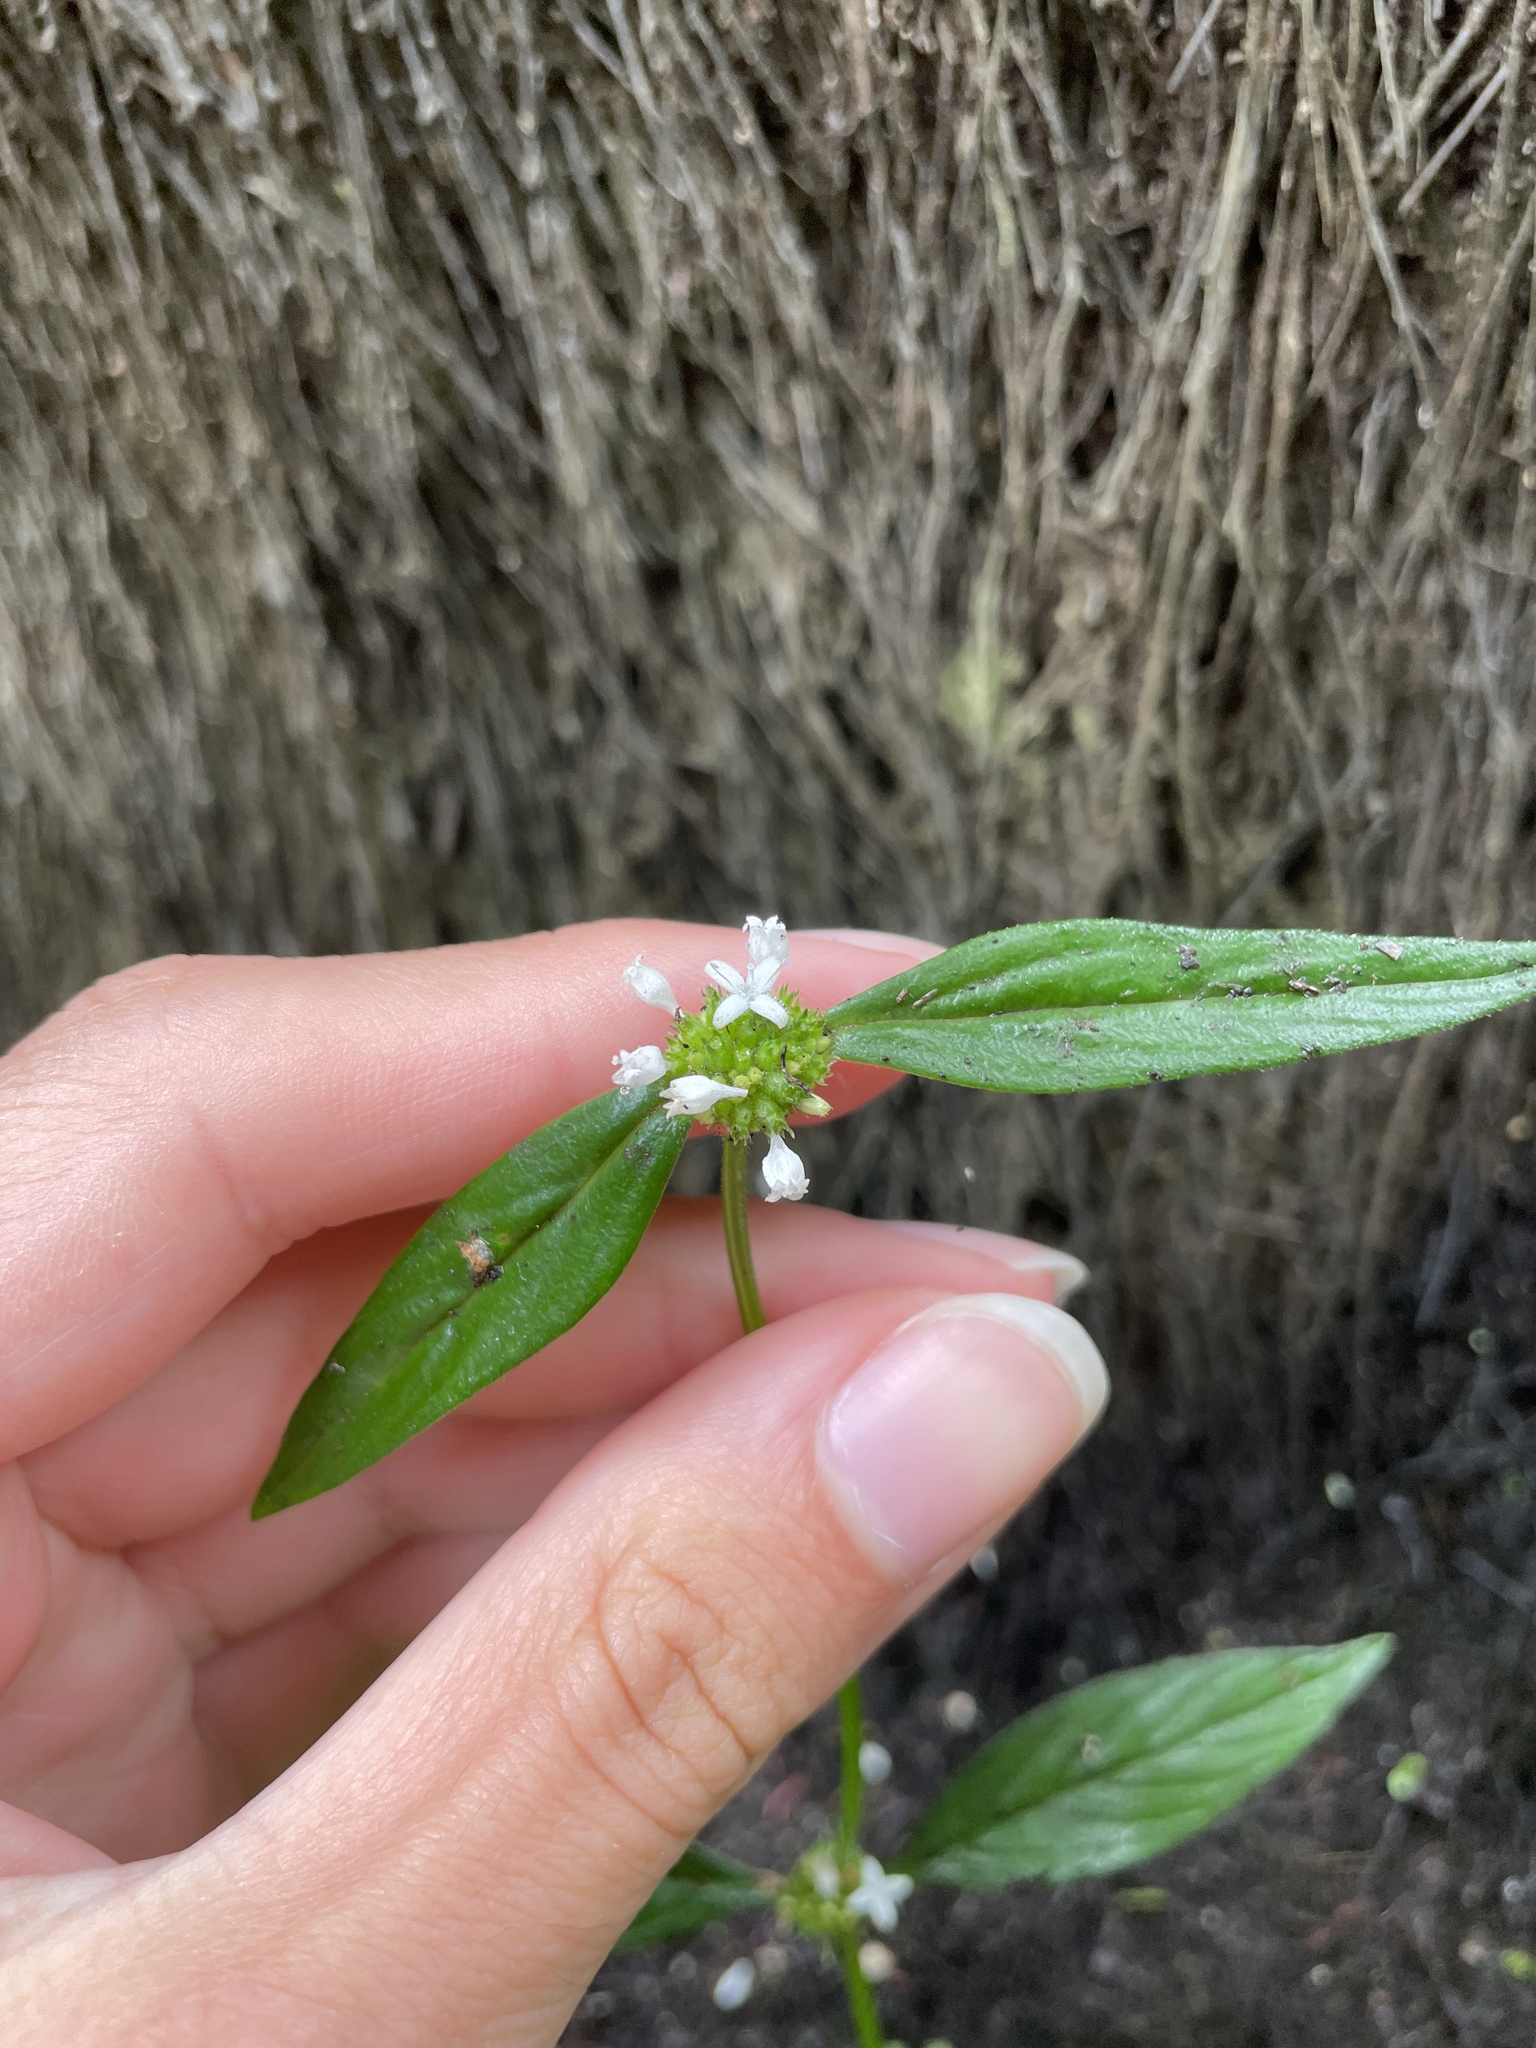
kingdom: Plantae
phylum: Tracheophyta
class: Magnoliopsida
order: Gentianales
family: Rubiaceae
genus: Spermacoce
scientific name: Spermacoce remota
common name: Woodland false buttonweed
